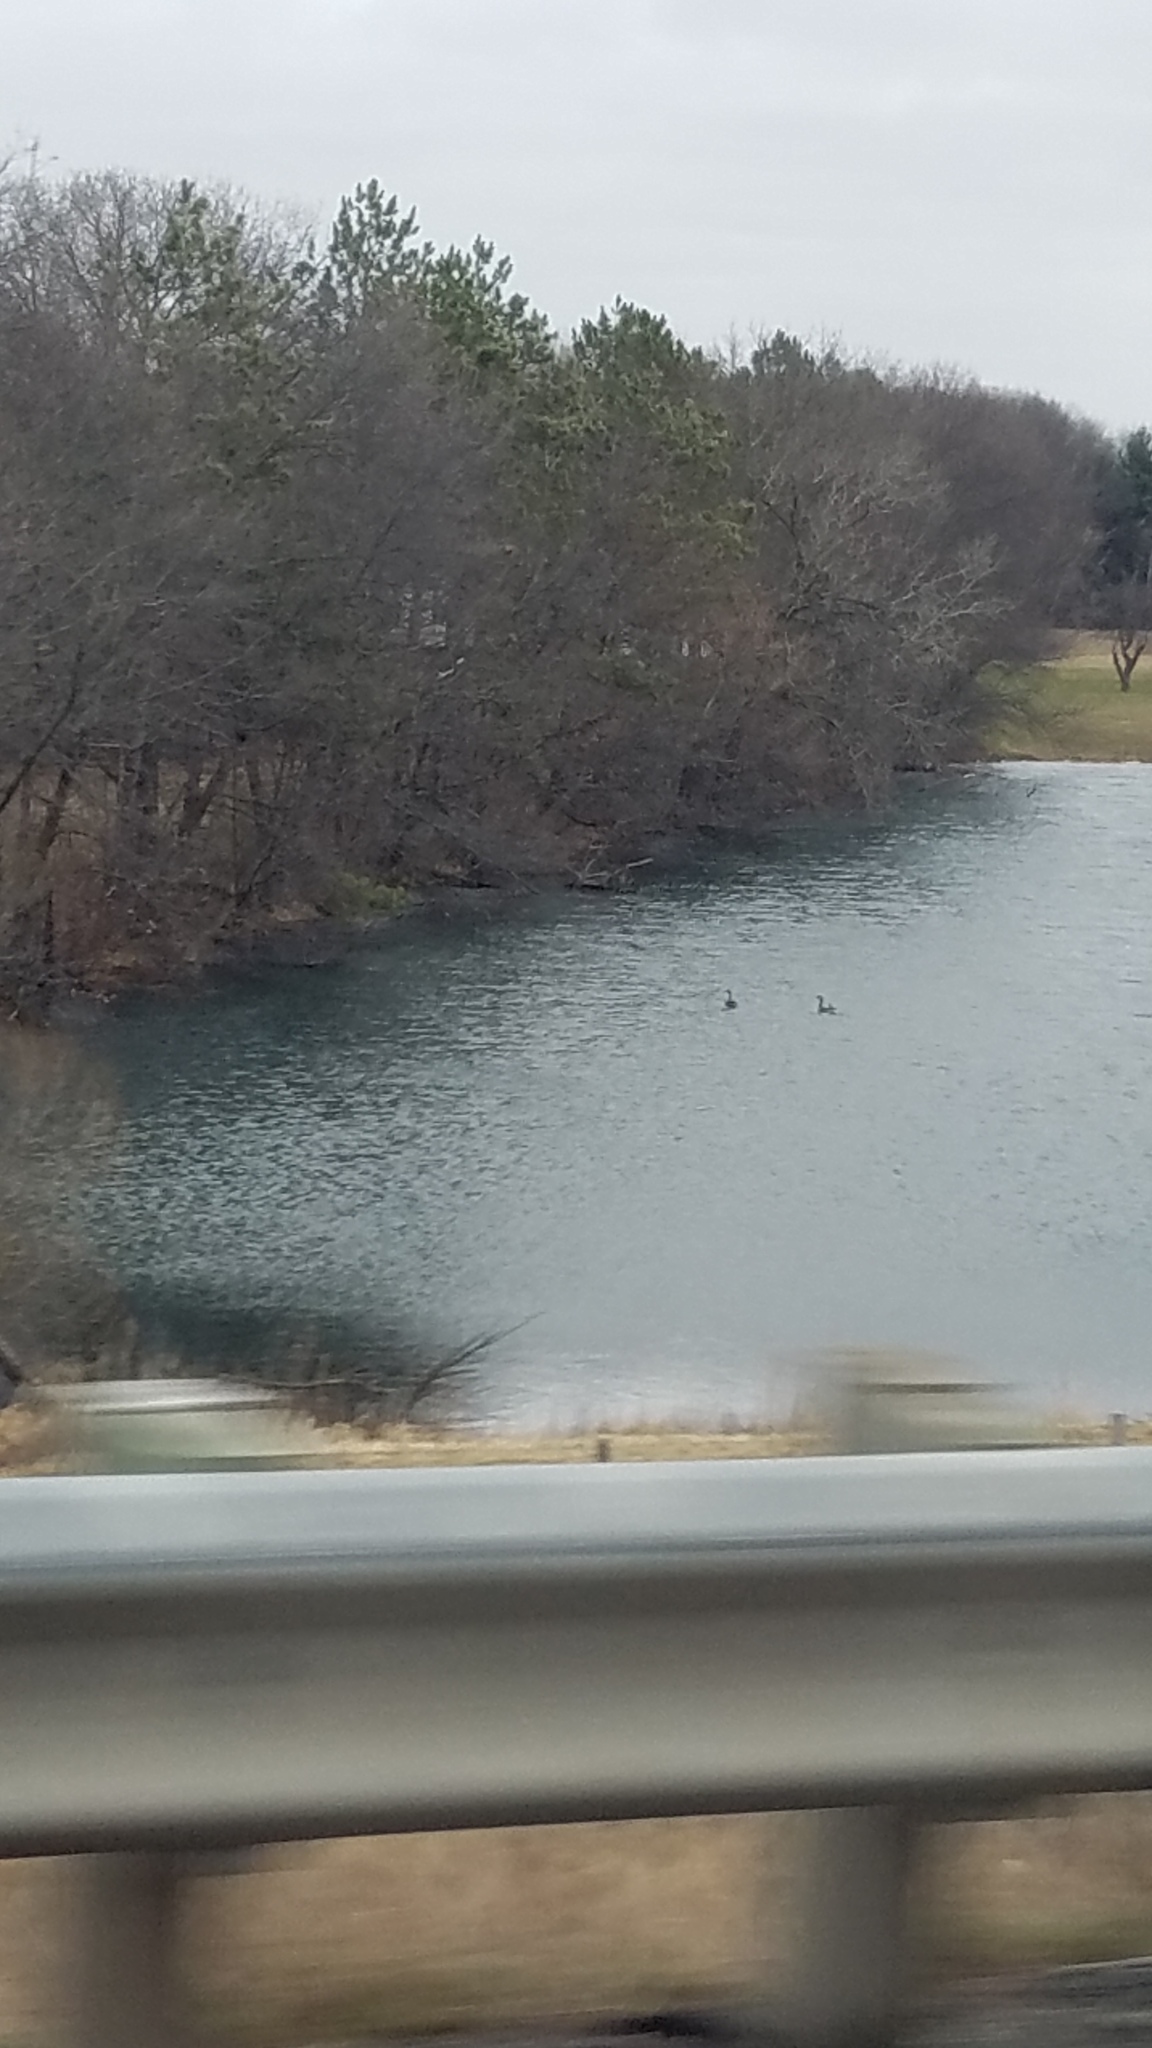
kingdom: Animalia
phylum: Chordata
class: Aves
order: Anseriformes
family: Anatidae
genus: Branta
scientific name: Branta canadensis
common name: Canada goose
